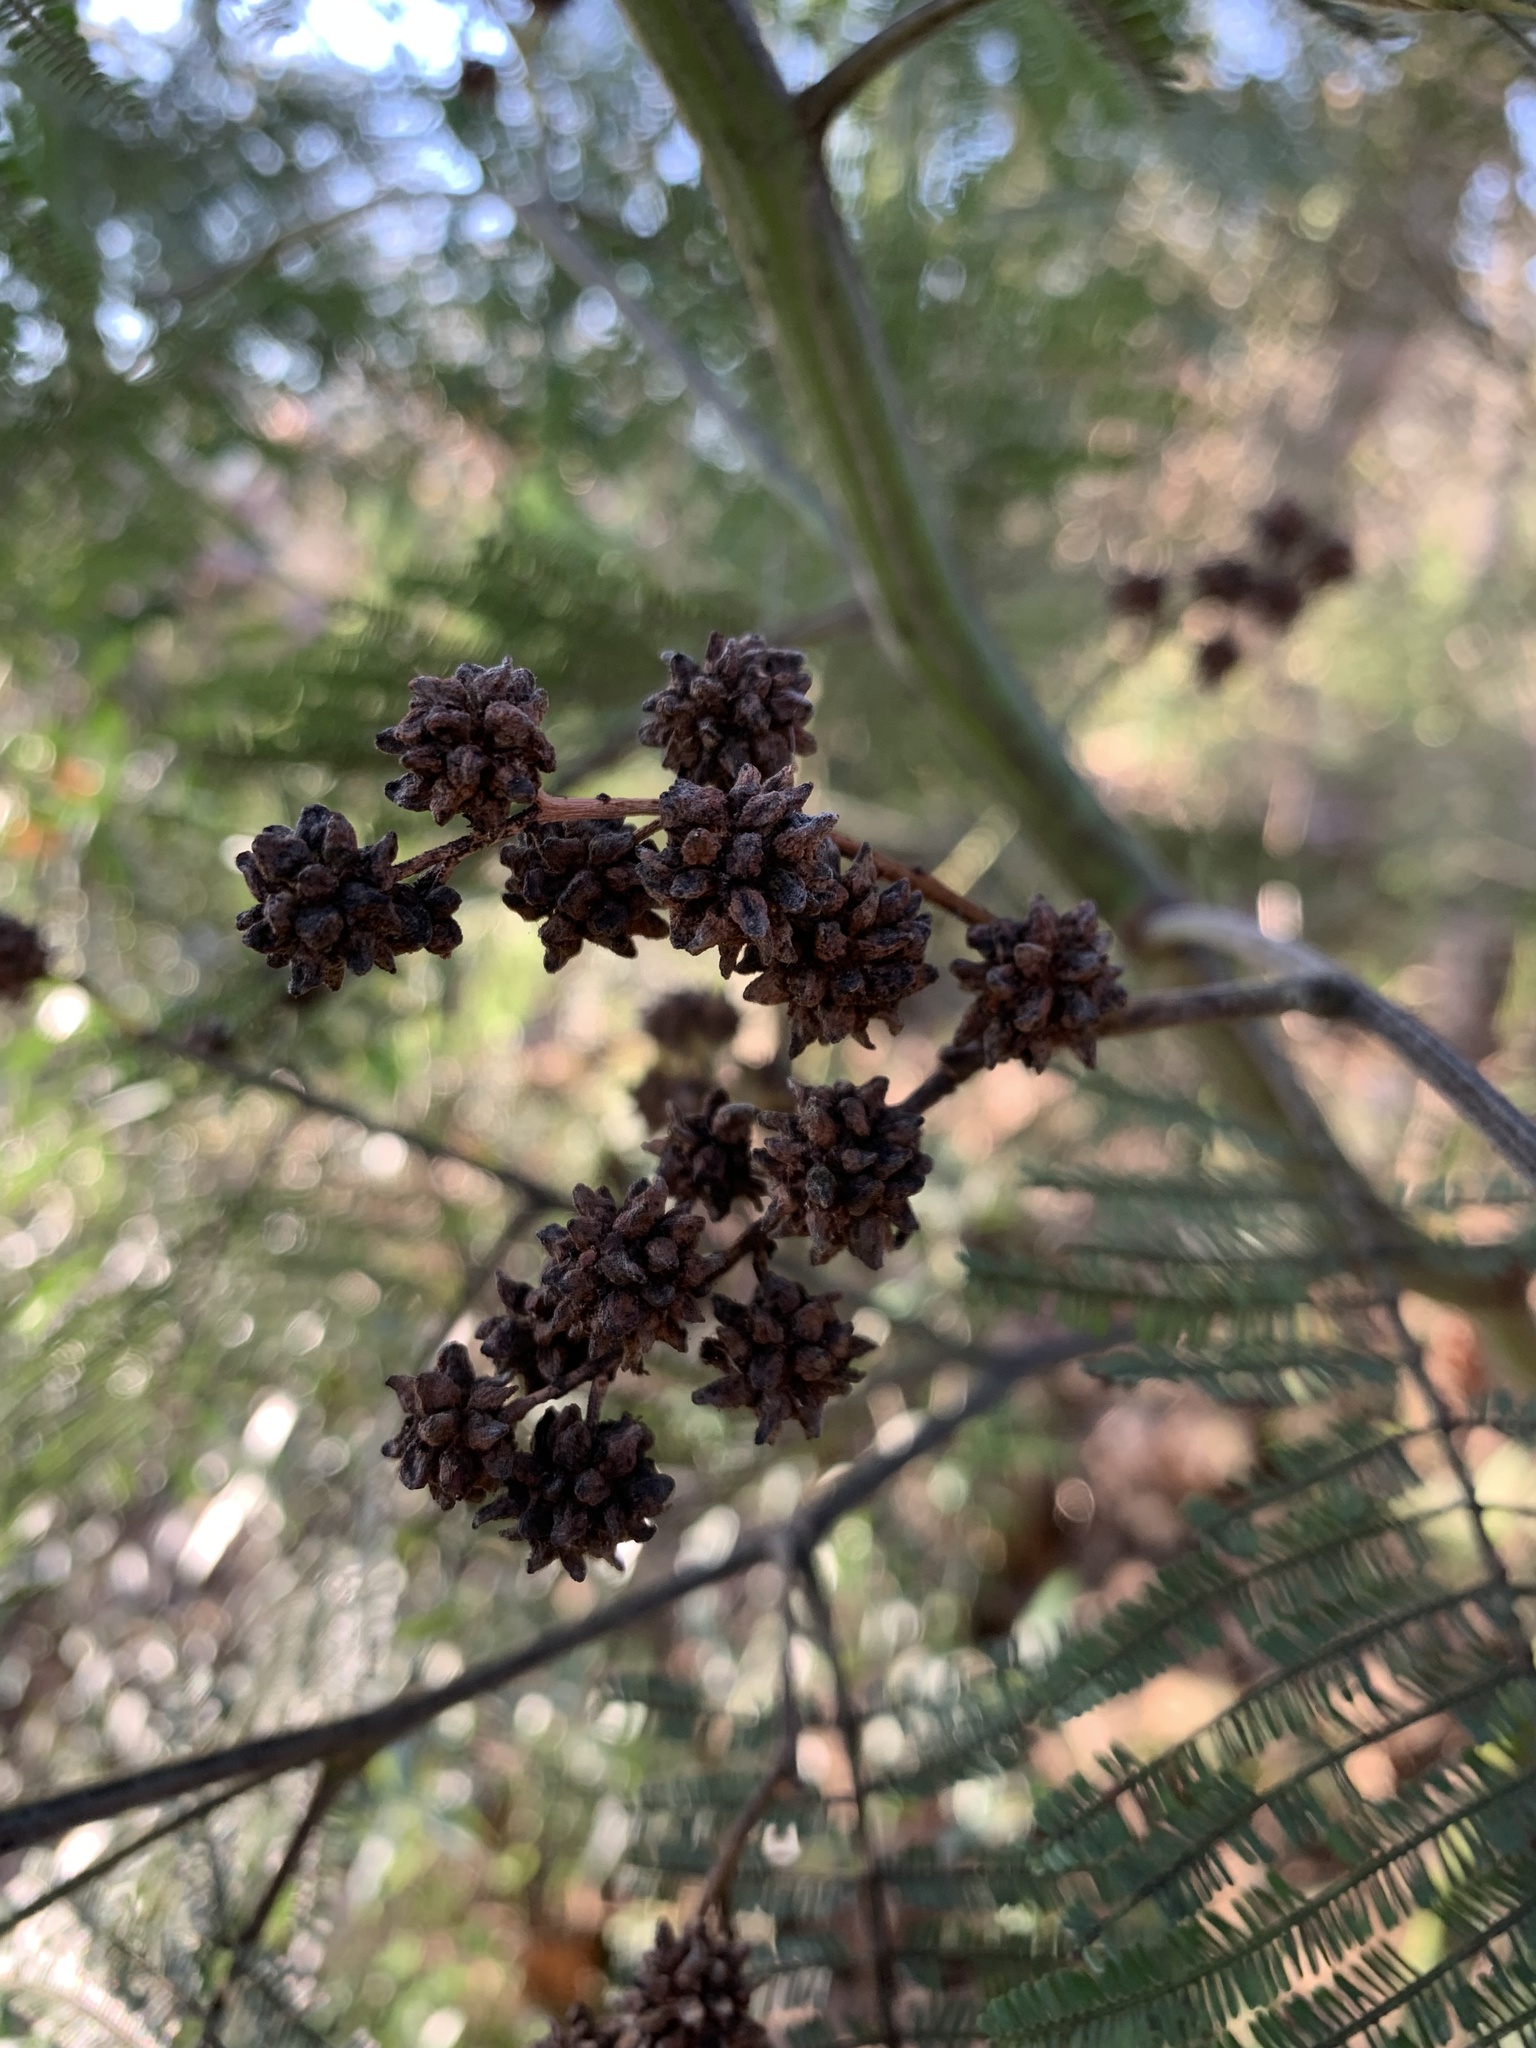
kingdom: Animalia
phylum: Arthropoda
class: Insecta
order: Diptera
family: Cecidomyiidae
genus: Dasineura
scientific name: Dasineura rubiformis
